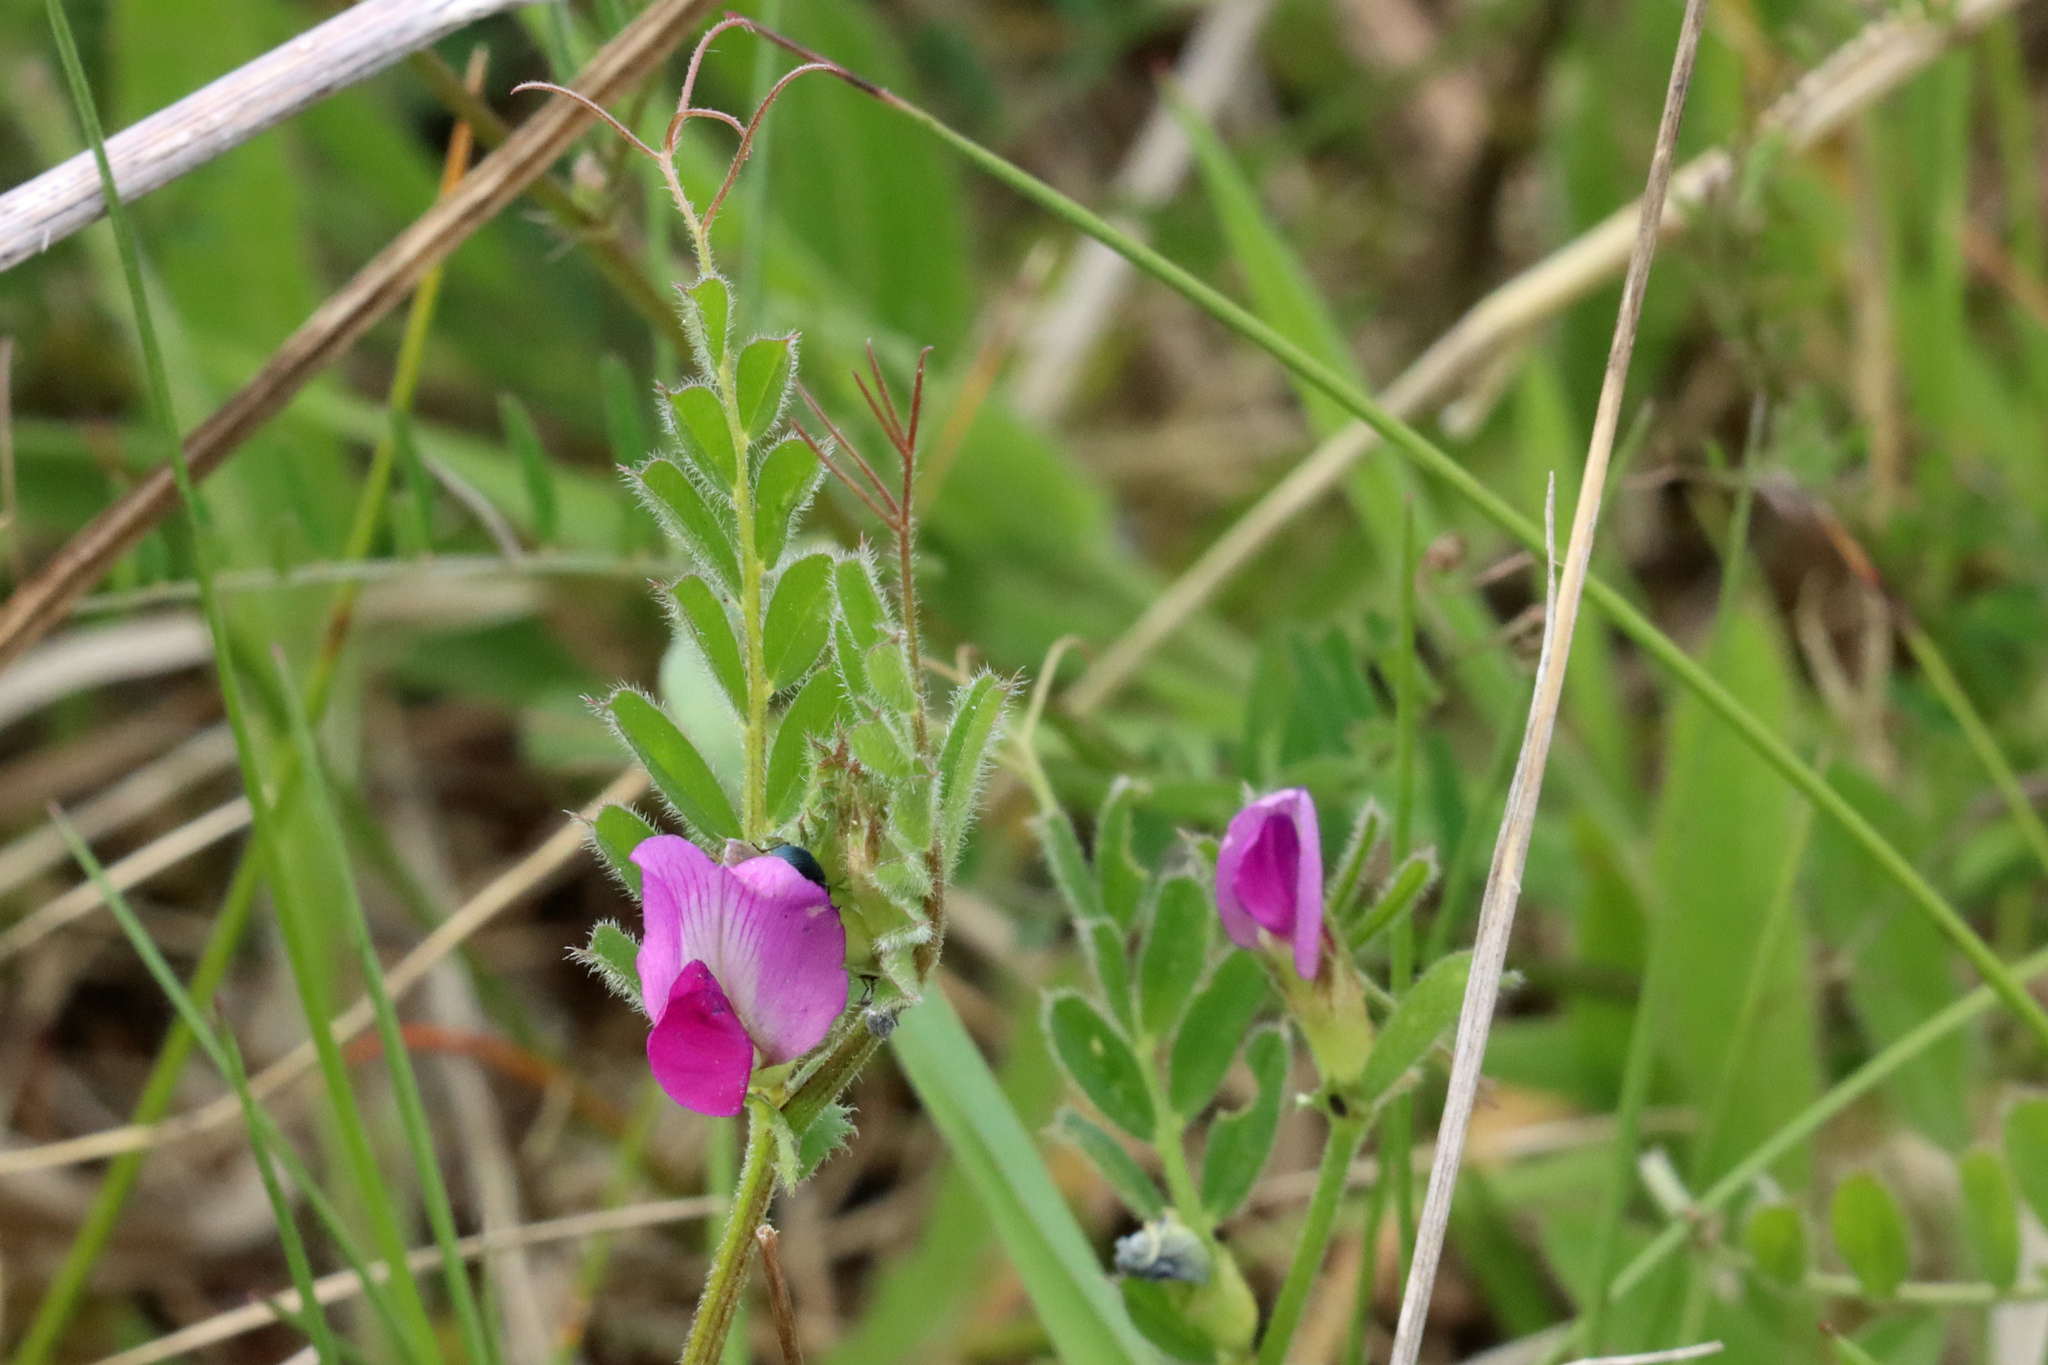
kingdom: Plantae
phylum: Tracheophyta
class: Magnoliopsida
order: Fabales
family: Fabaceae
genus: Vicia
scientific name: Vicia sativa
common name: Garden vetch
